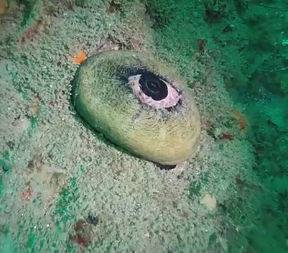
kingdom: Animalia
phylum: Mollusca
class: Gastropoda
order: Lepetellida
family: Fissurellidae
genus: Megathura
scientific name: Megathura crenulata
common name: Giant keyhole limpet
